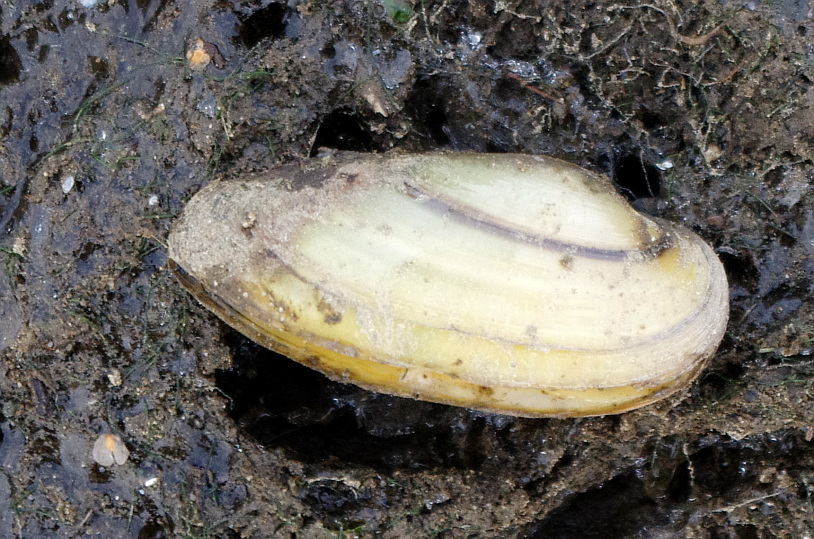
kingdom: Animalia
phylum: Mollusca
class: Bivalvia
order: Unionida
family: Unionidae
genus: Unio
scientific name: Unio pictorum
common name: Painter's mussel
